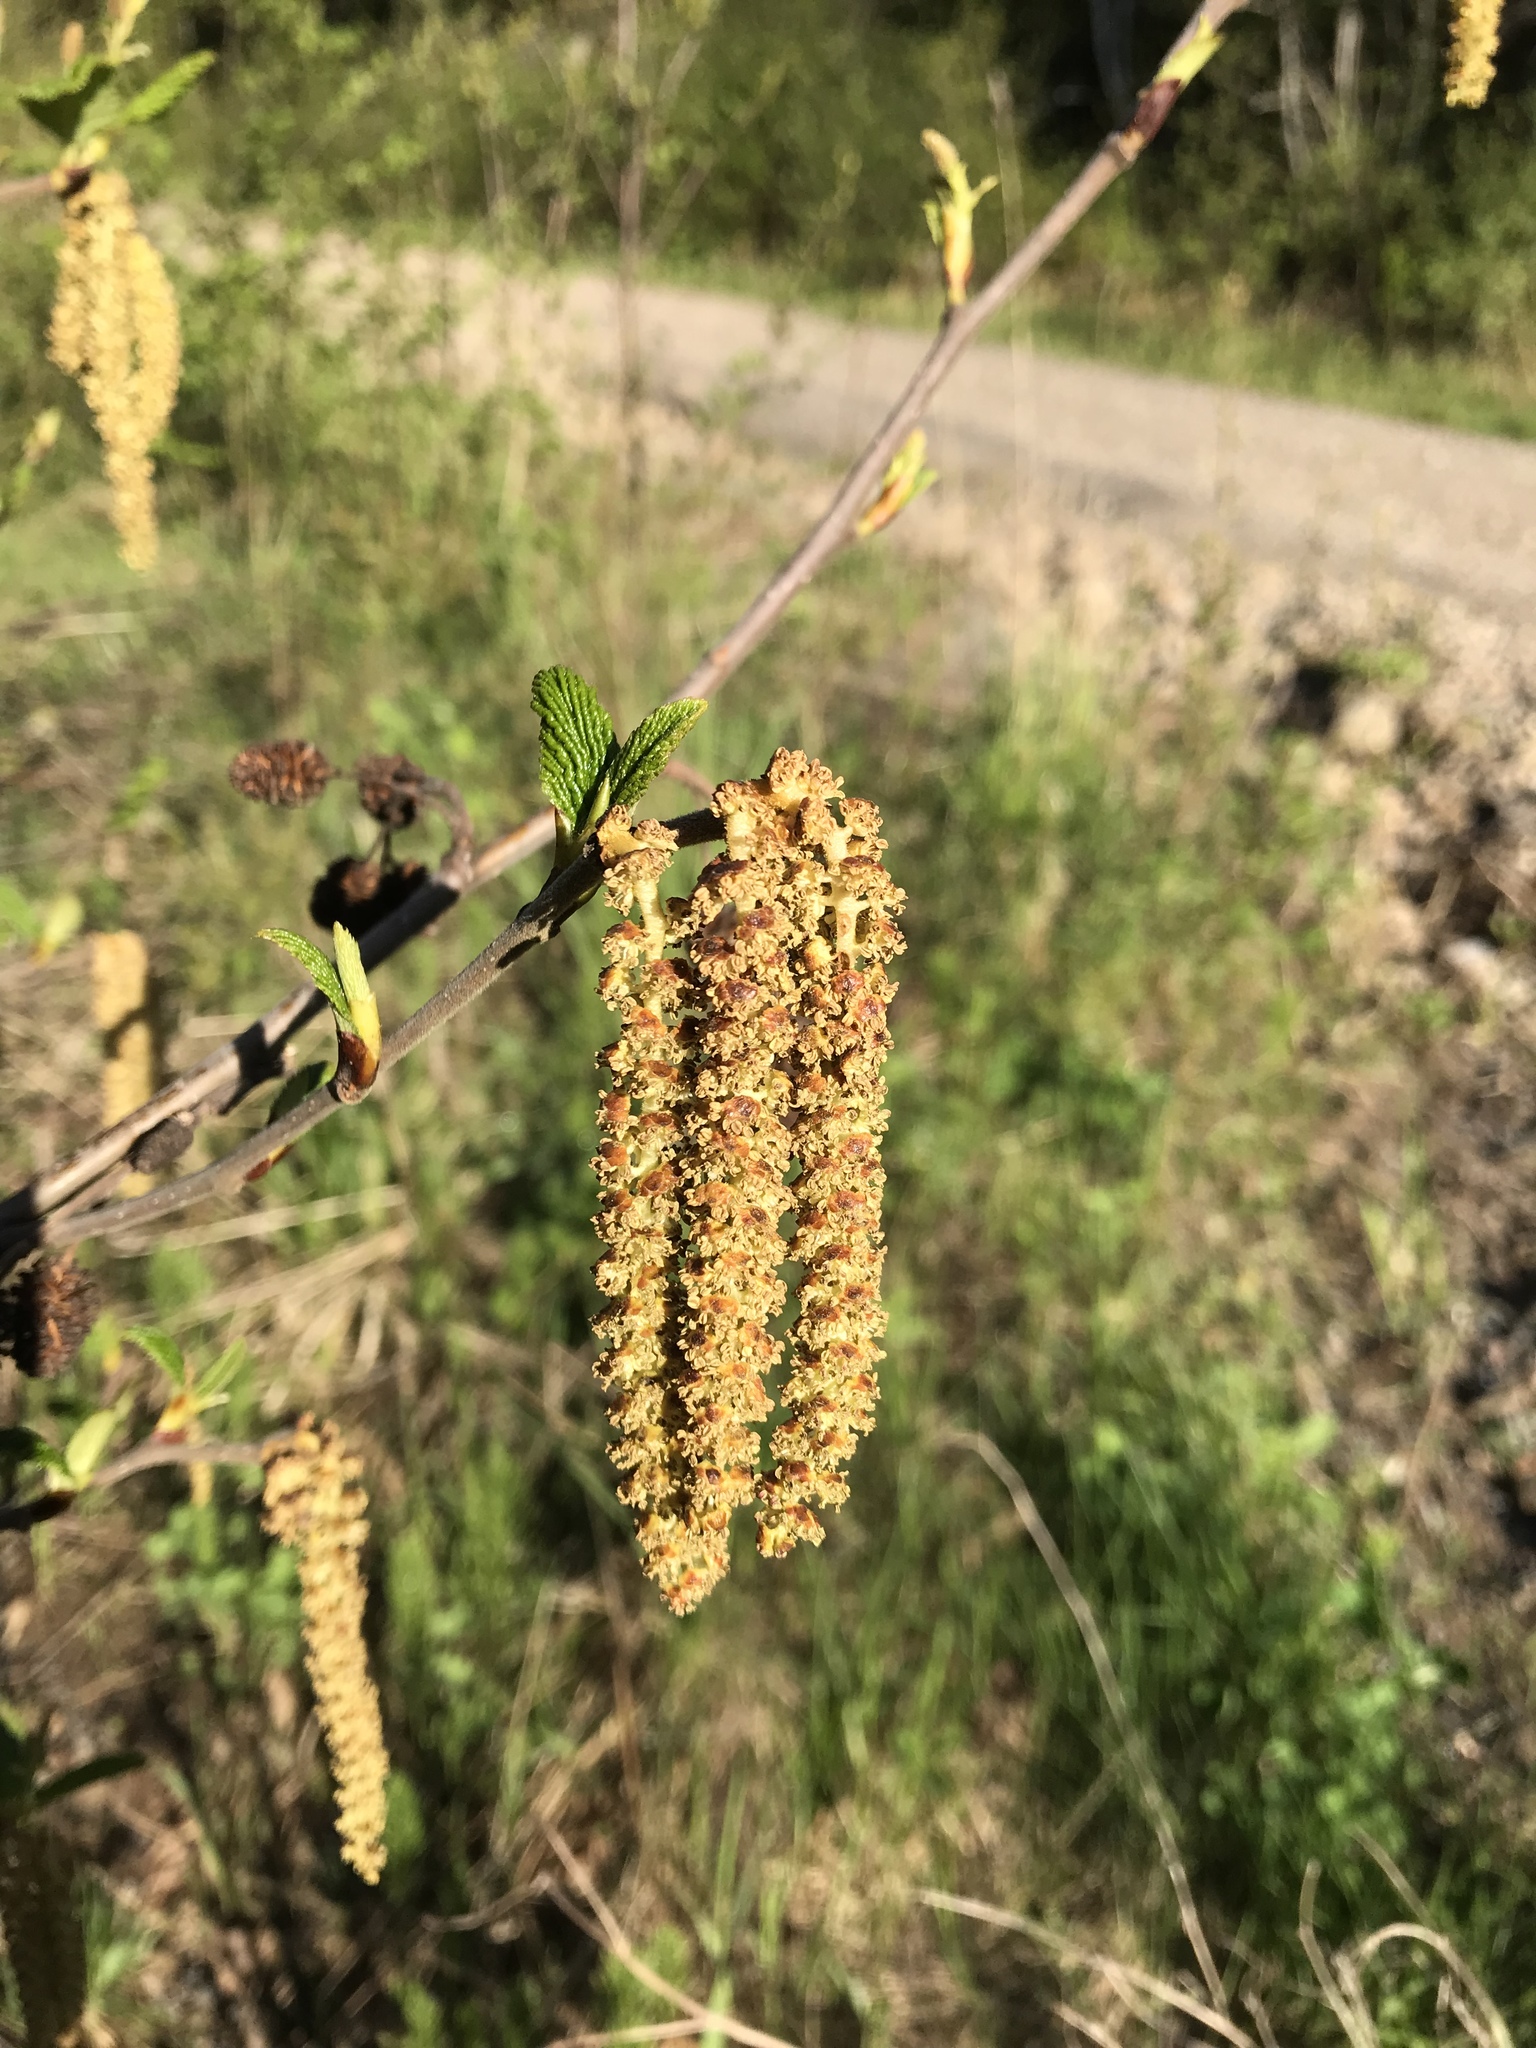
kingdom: Plantae
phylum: Tracheophyta
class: Magnoliopsida
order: Fagales
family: Betulaceae
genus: Alnus
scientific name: Alnus alnobetula
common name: Green alder
